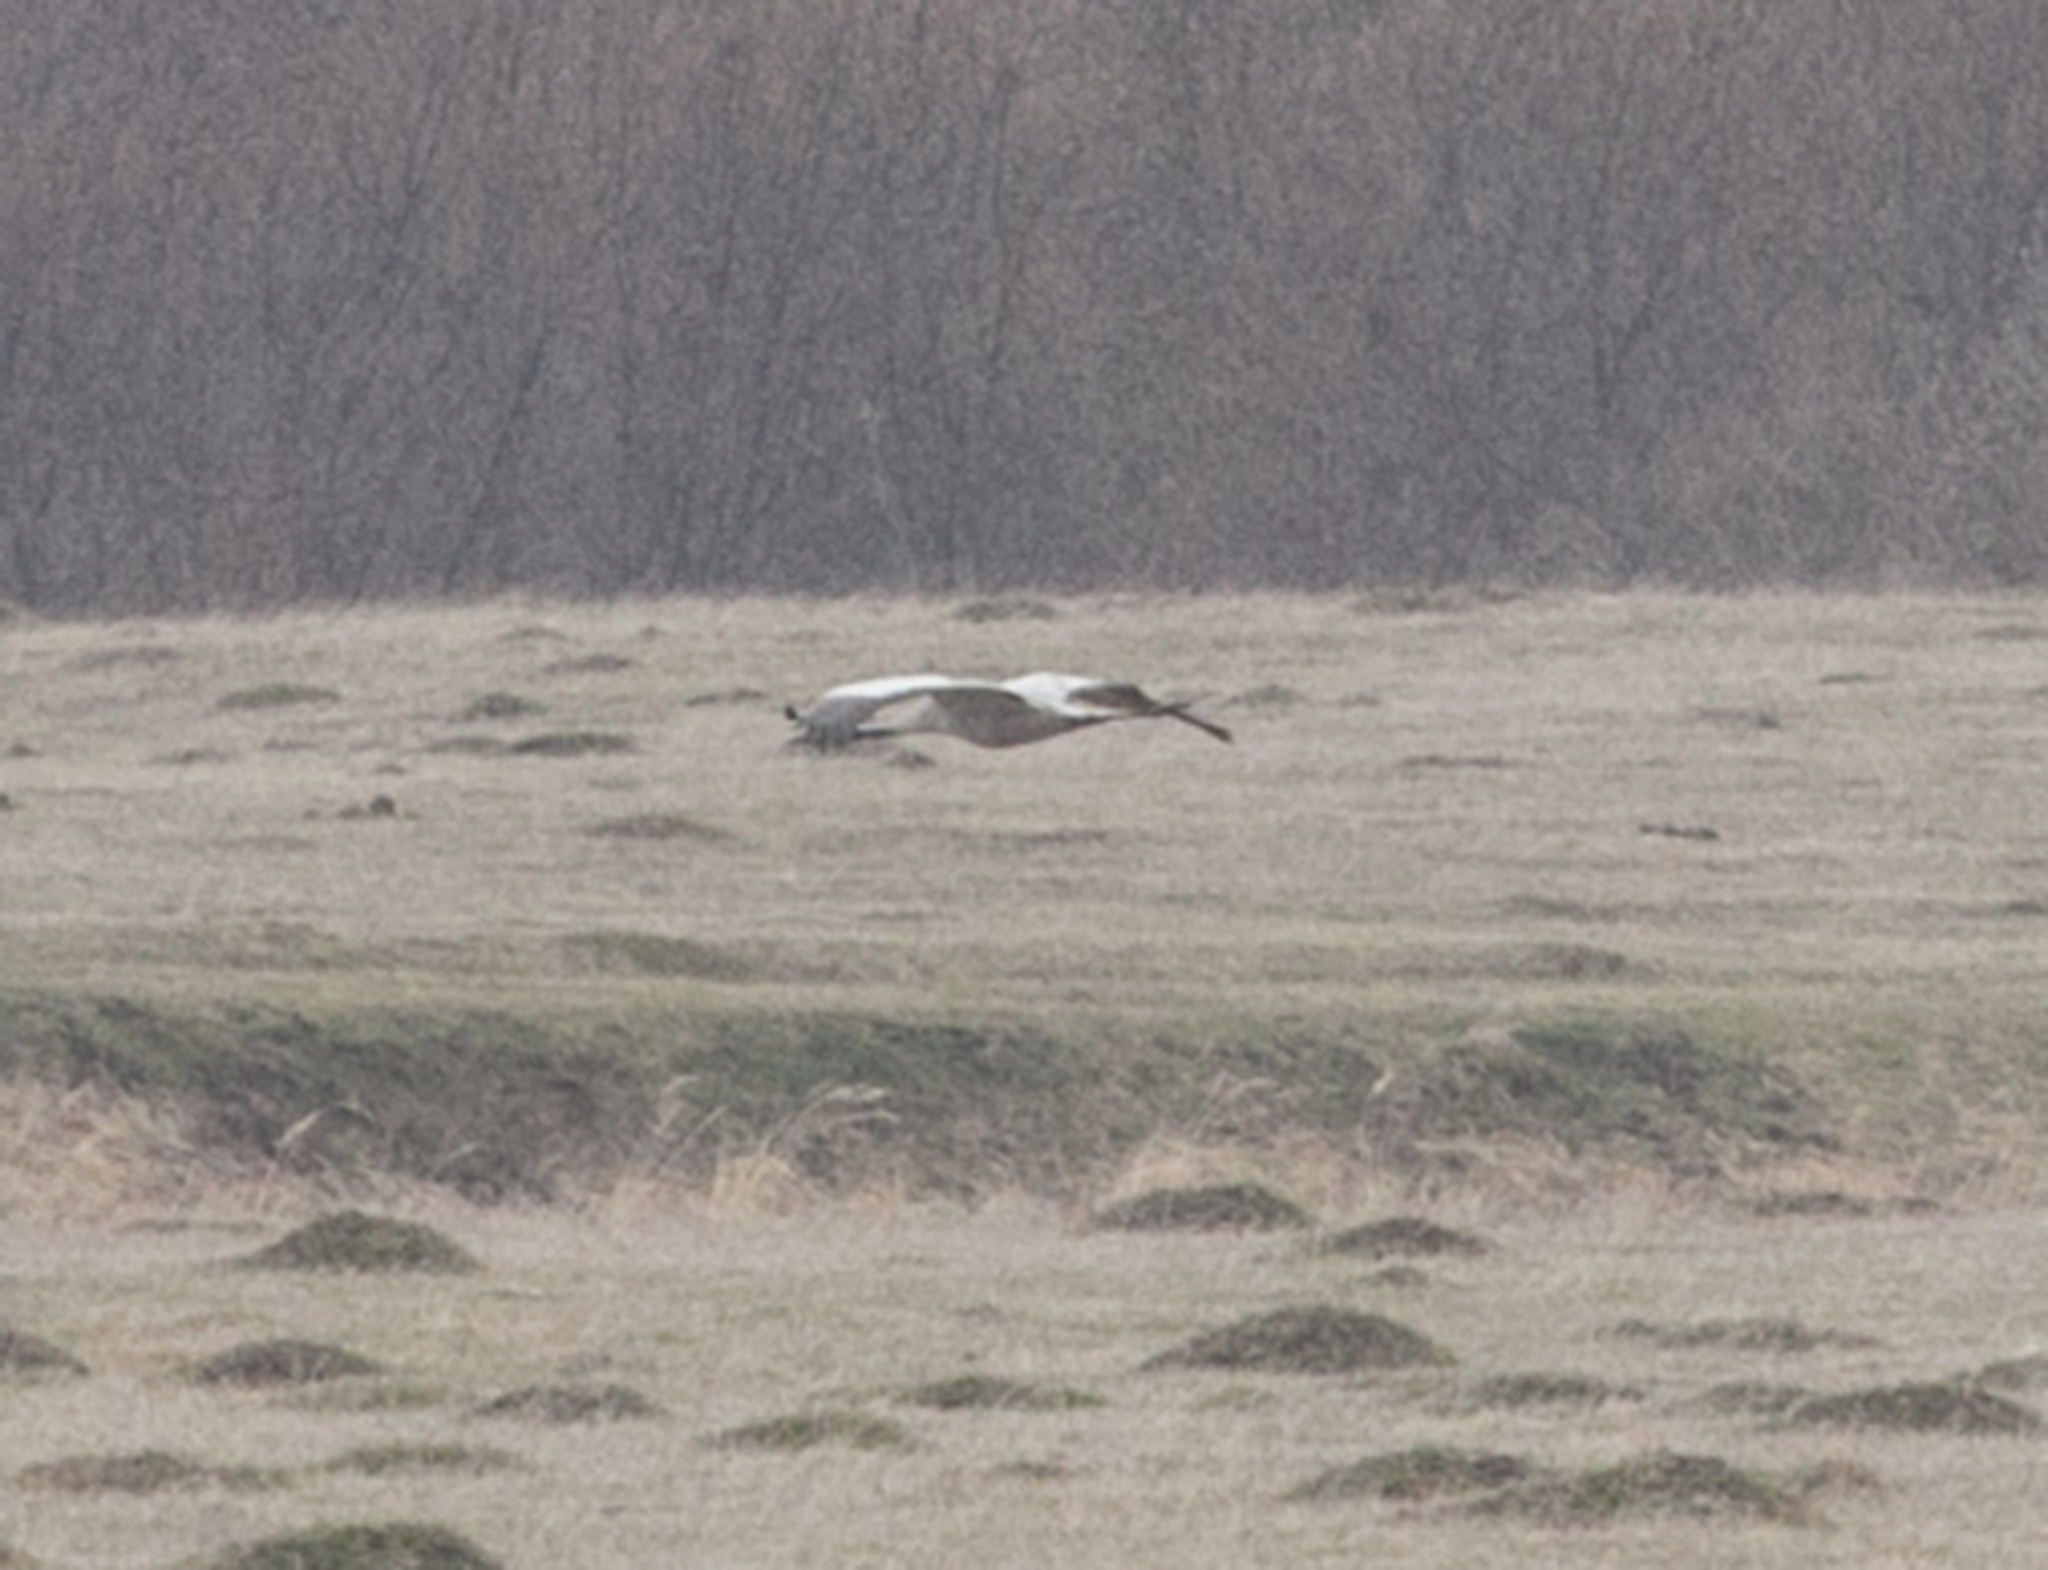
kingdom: Animalia
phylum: Chordata
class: Aves
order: Gruiformes
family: Gruidae
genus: Grus
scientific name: Grus grus
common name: Common crane
